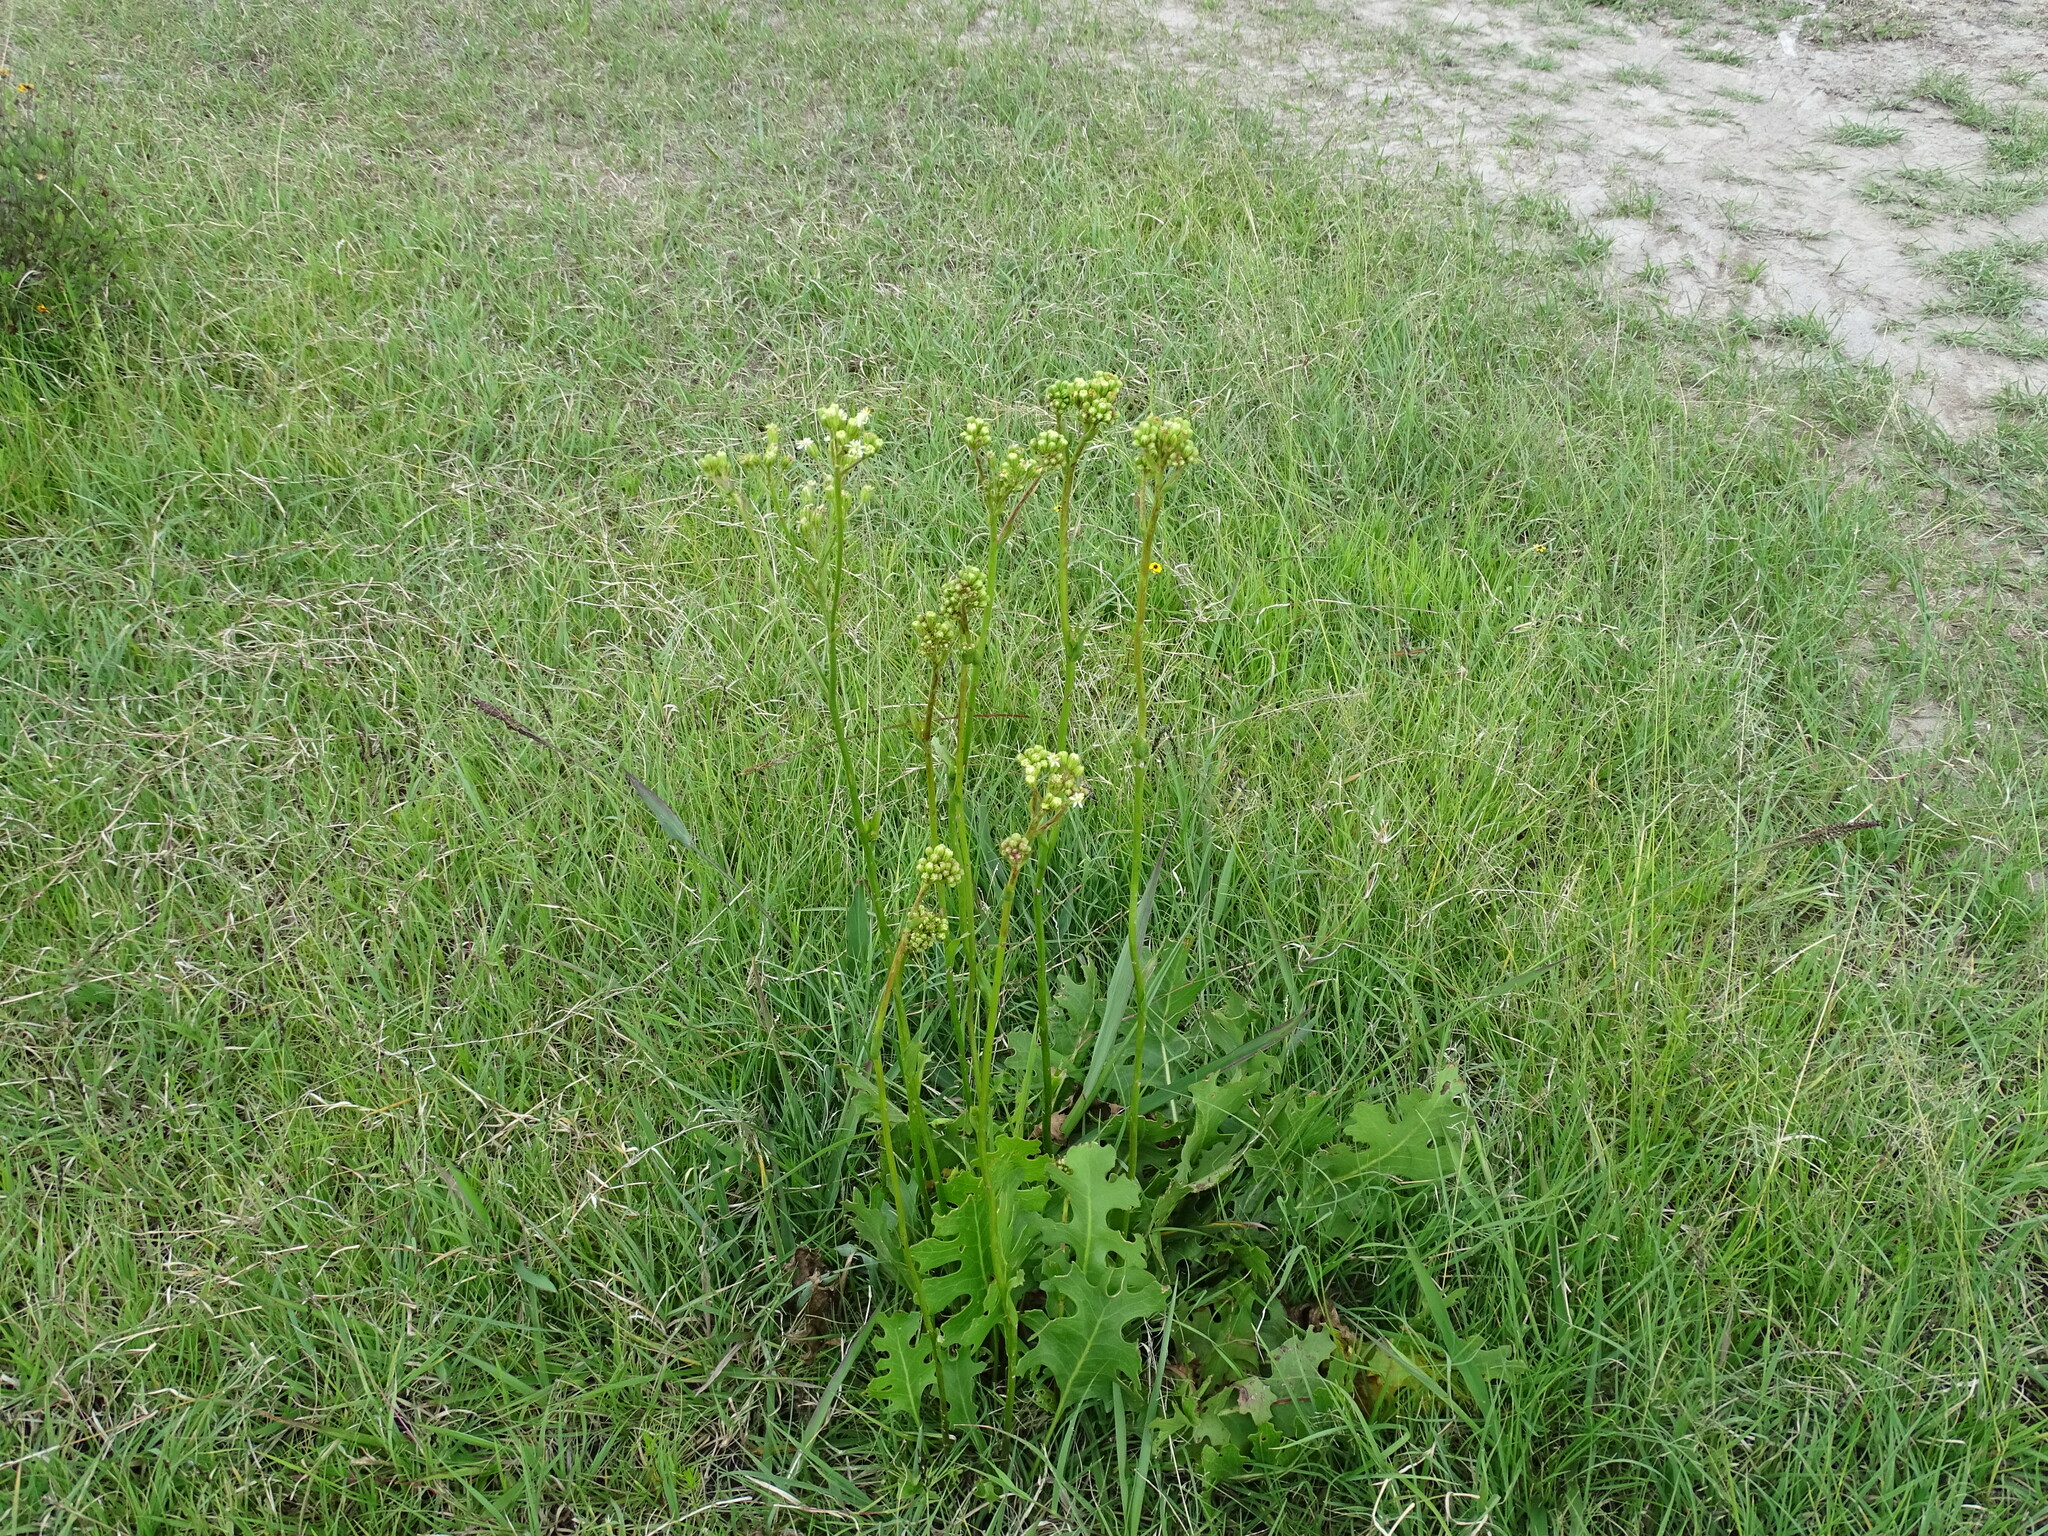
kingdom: Plantae
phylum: Tracheophyta
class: Magnoliopsida
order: Asterales
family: Asteraceae
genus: Psacalium
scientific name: Psacalium sinuatum
